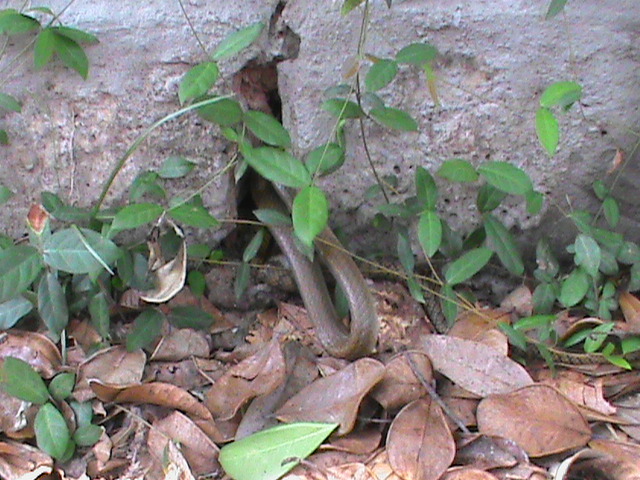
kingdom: Animalia
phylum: Chordata
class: Squamata
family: Colubridae
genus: Ptyas
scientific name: Ptyas mucosa
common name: Oriental ratsnake
